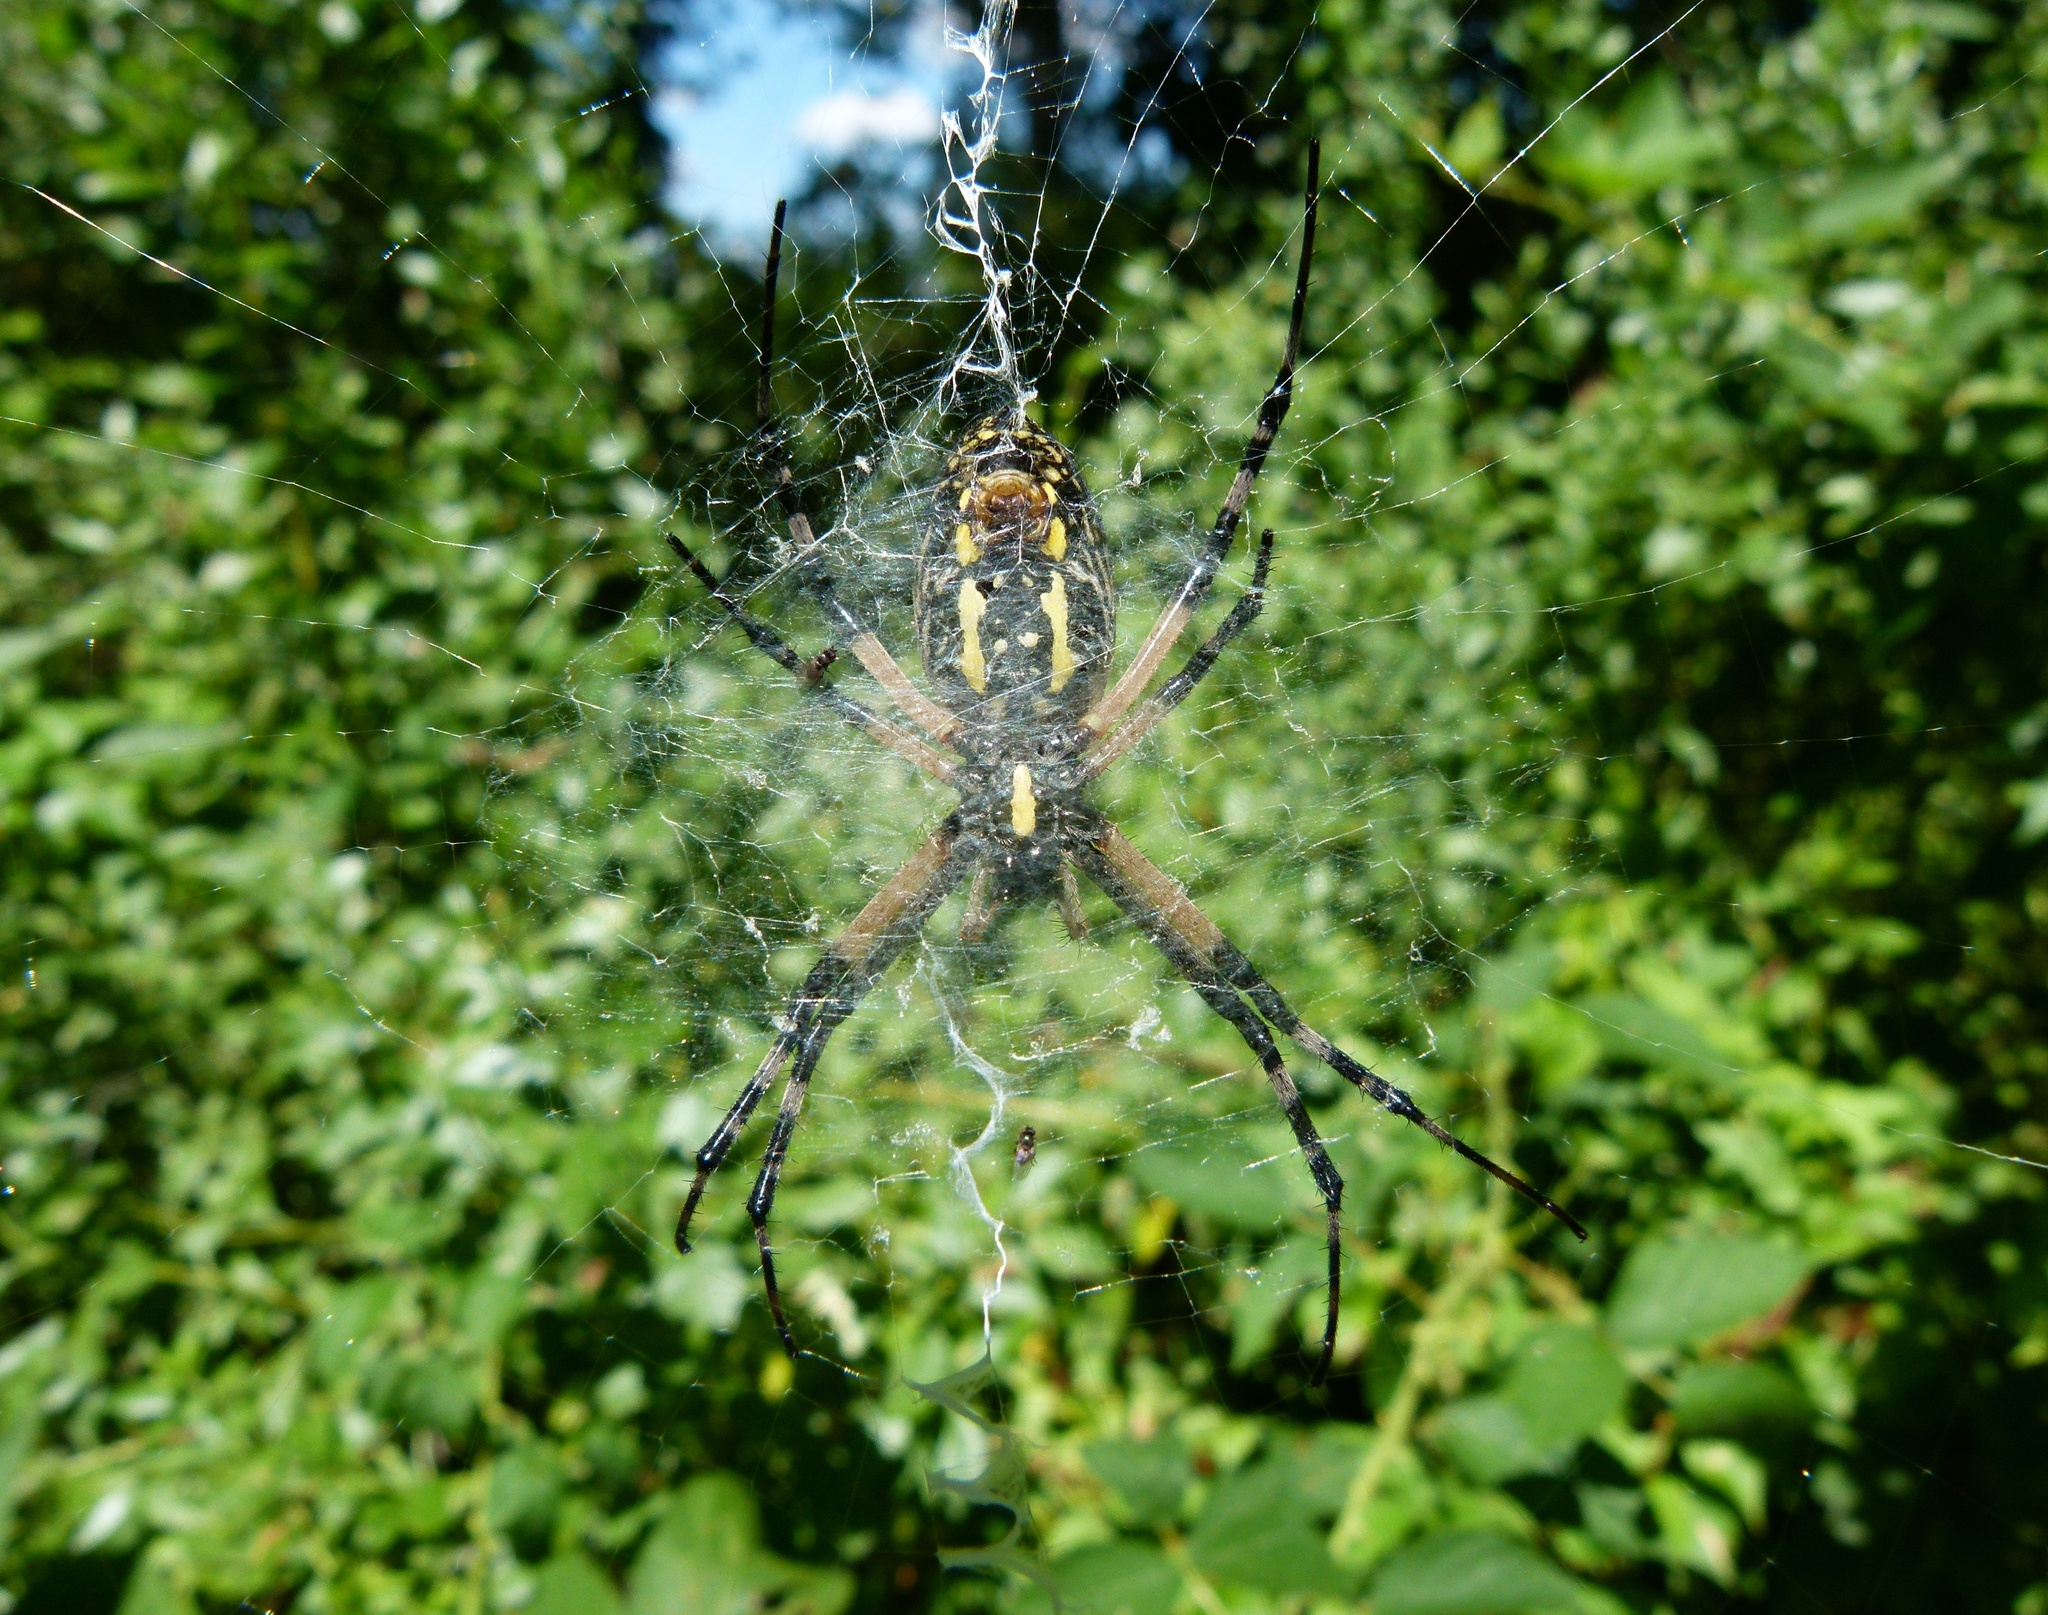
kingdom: Animalia
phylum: Arthropoda
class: Arachnida
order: Araneae
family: Araneidae
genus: Argiope
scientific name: Argiope aurantia
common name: Orb weavers
